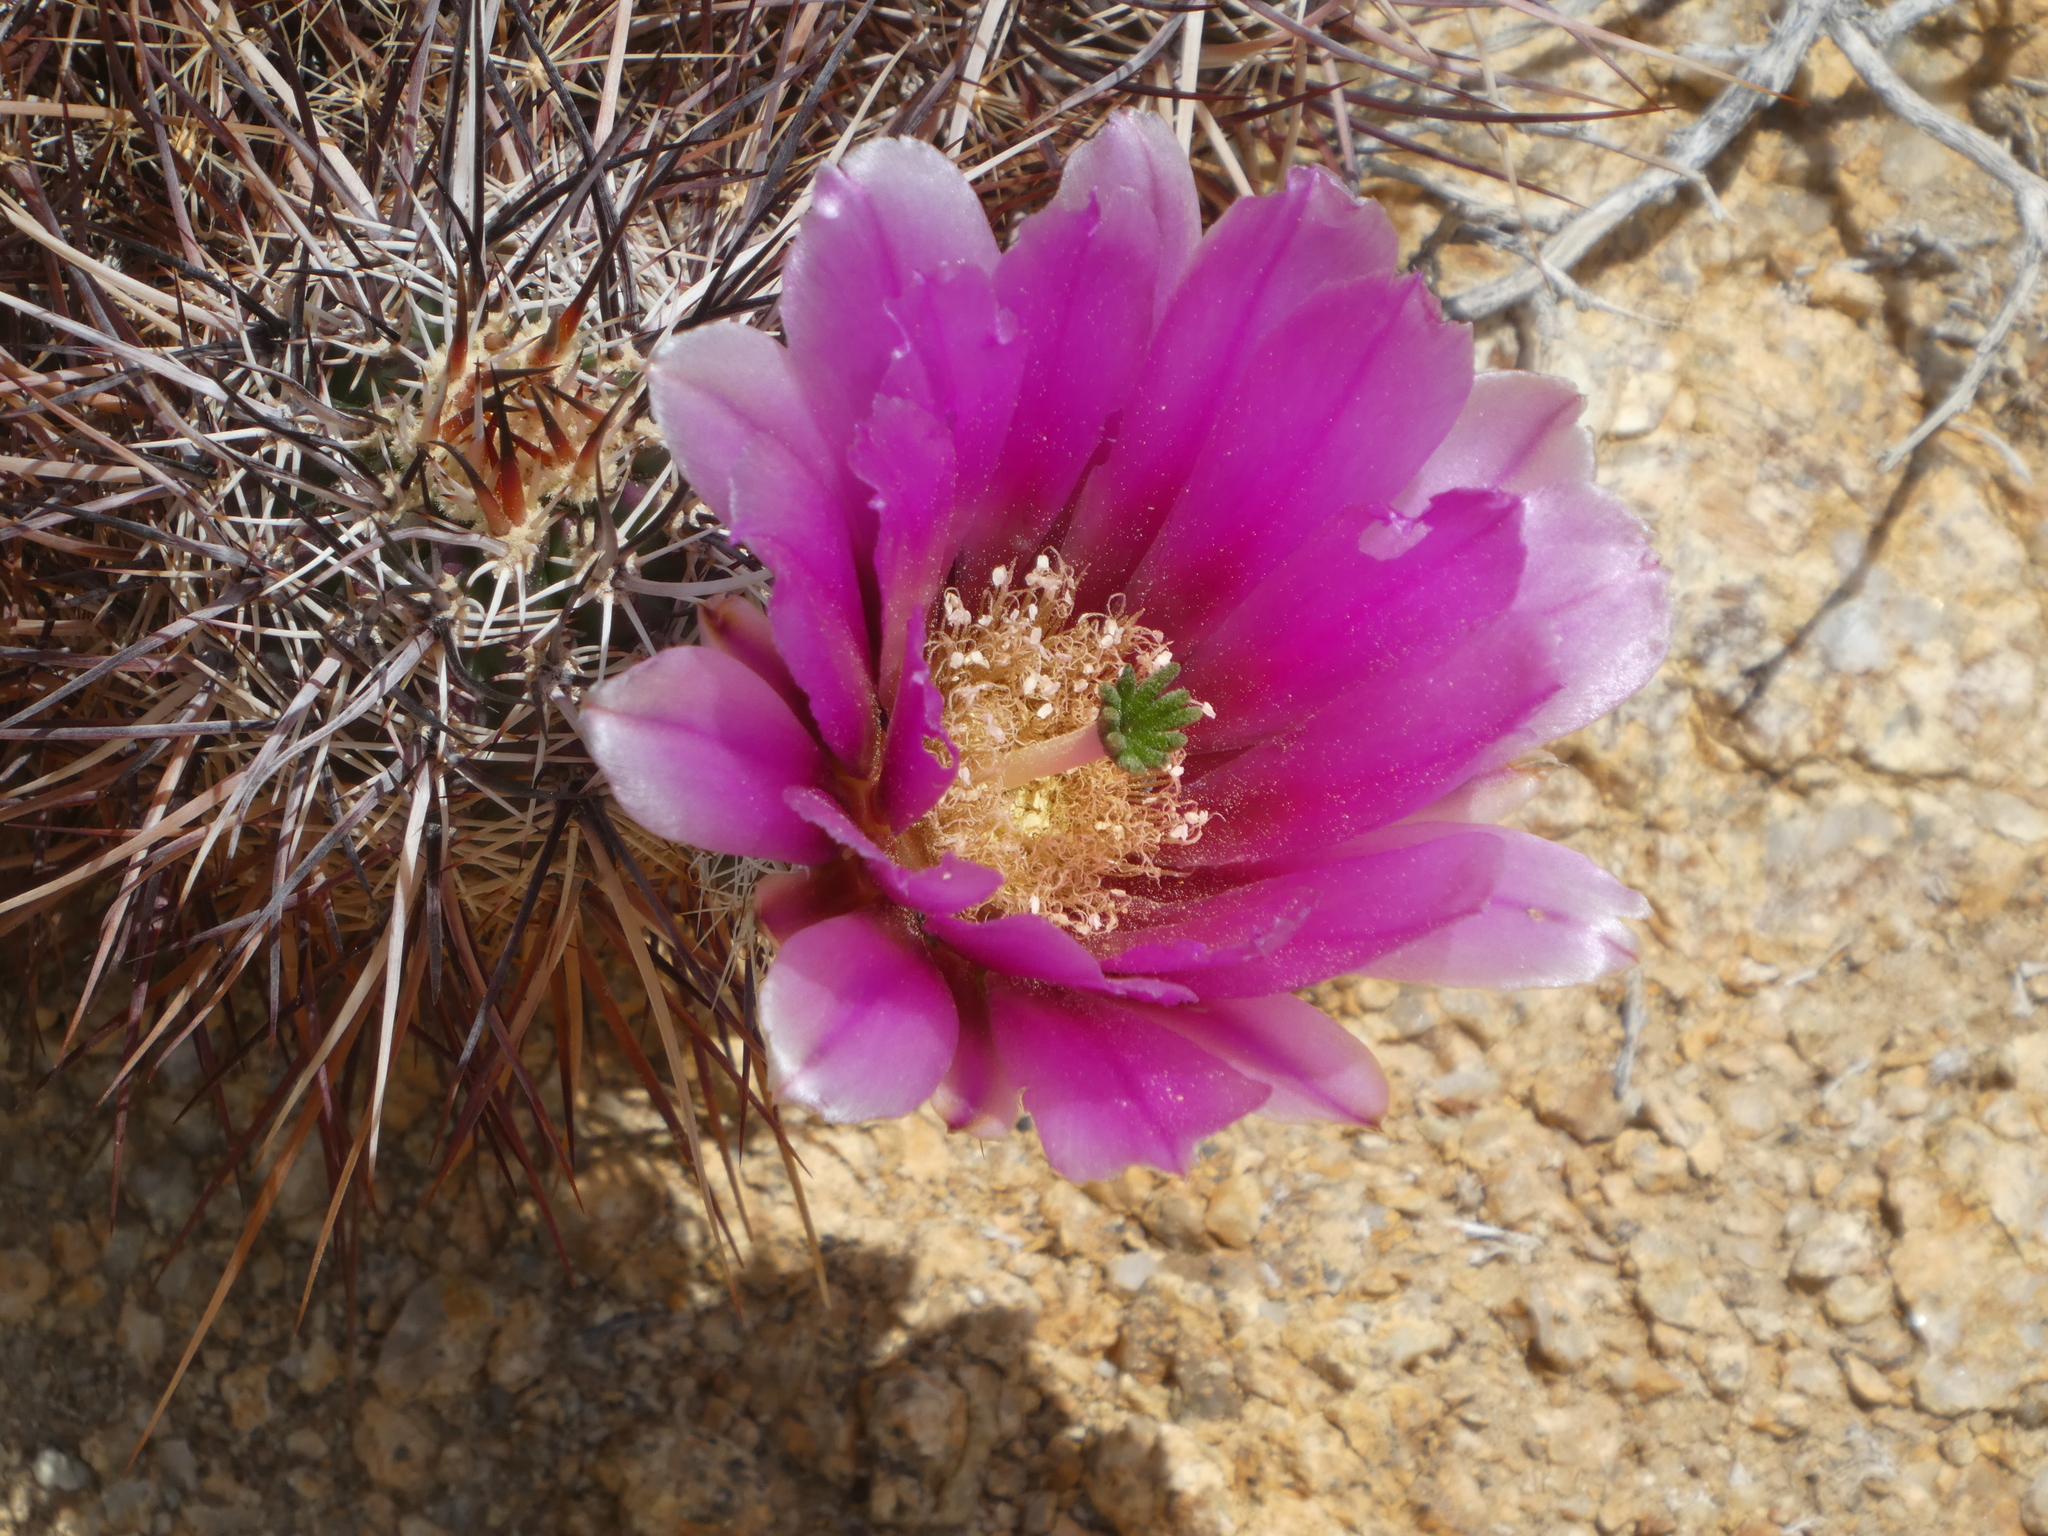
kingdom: Plantae
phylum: Tracheophyta
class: Magnoliopsida
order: Caryophyllales
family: Cactaceae
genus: Echinocereus
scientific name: Echinocereus engelmannii
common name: Engelmann's hedgehog cactus
